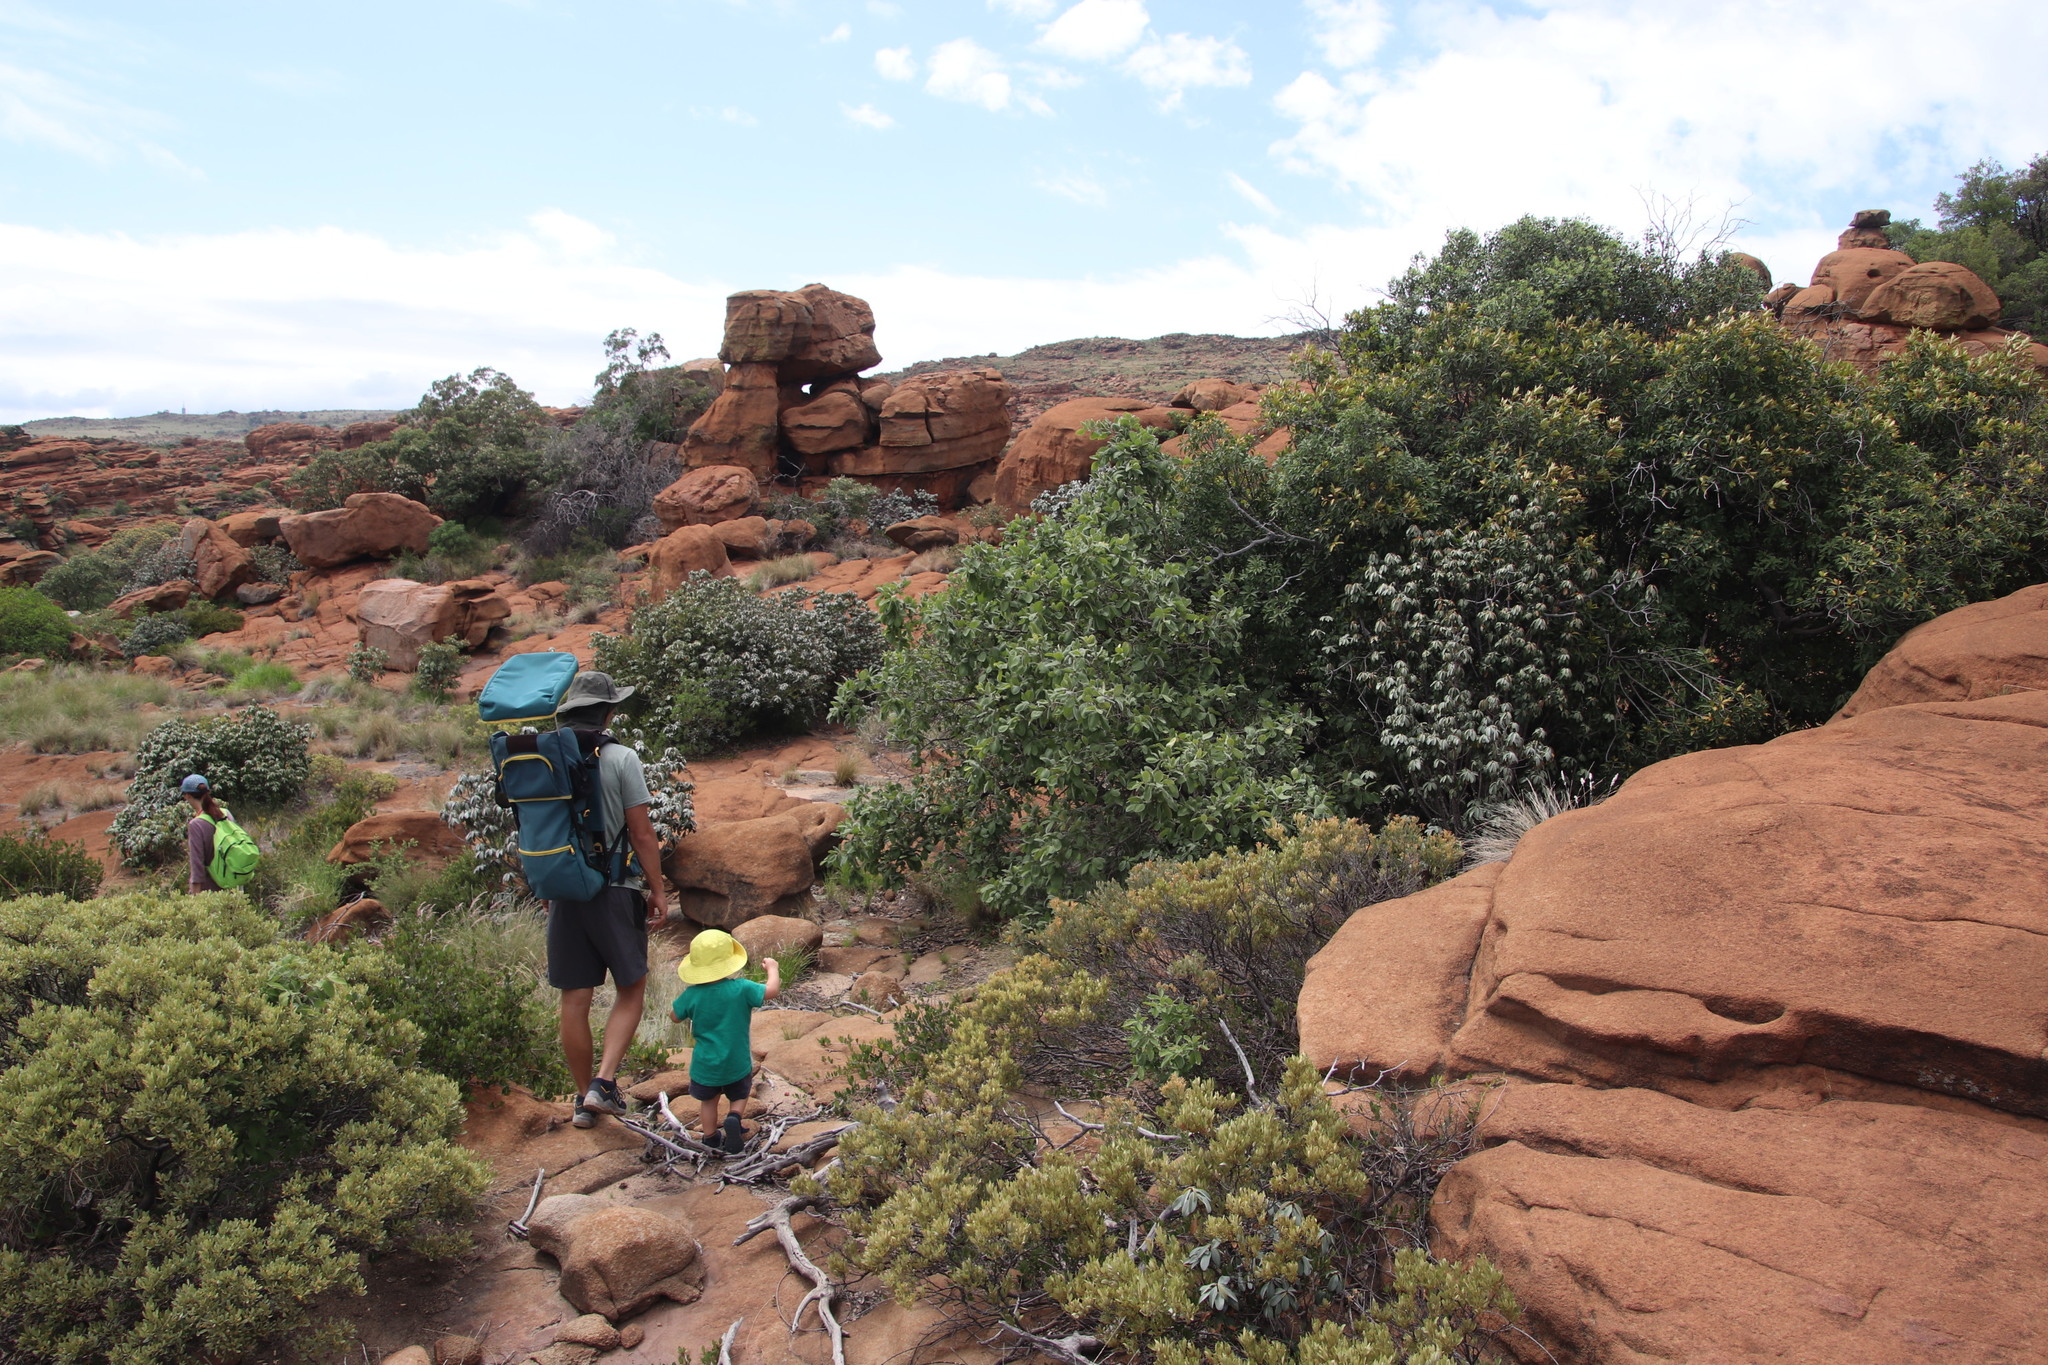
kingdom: Plantae
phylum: Tracheophyta
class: Magnoliopsida
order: Myrtales
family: Combretaceae
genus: Combretum
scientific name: Combretum molle
